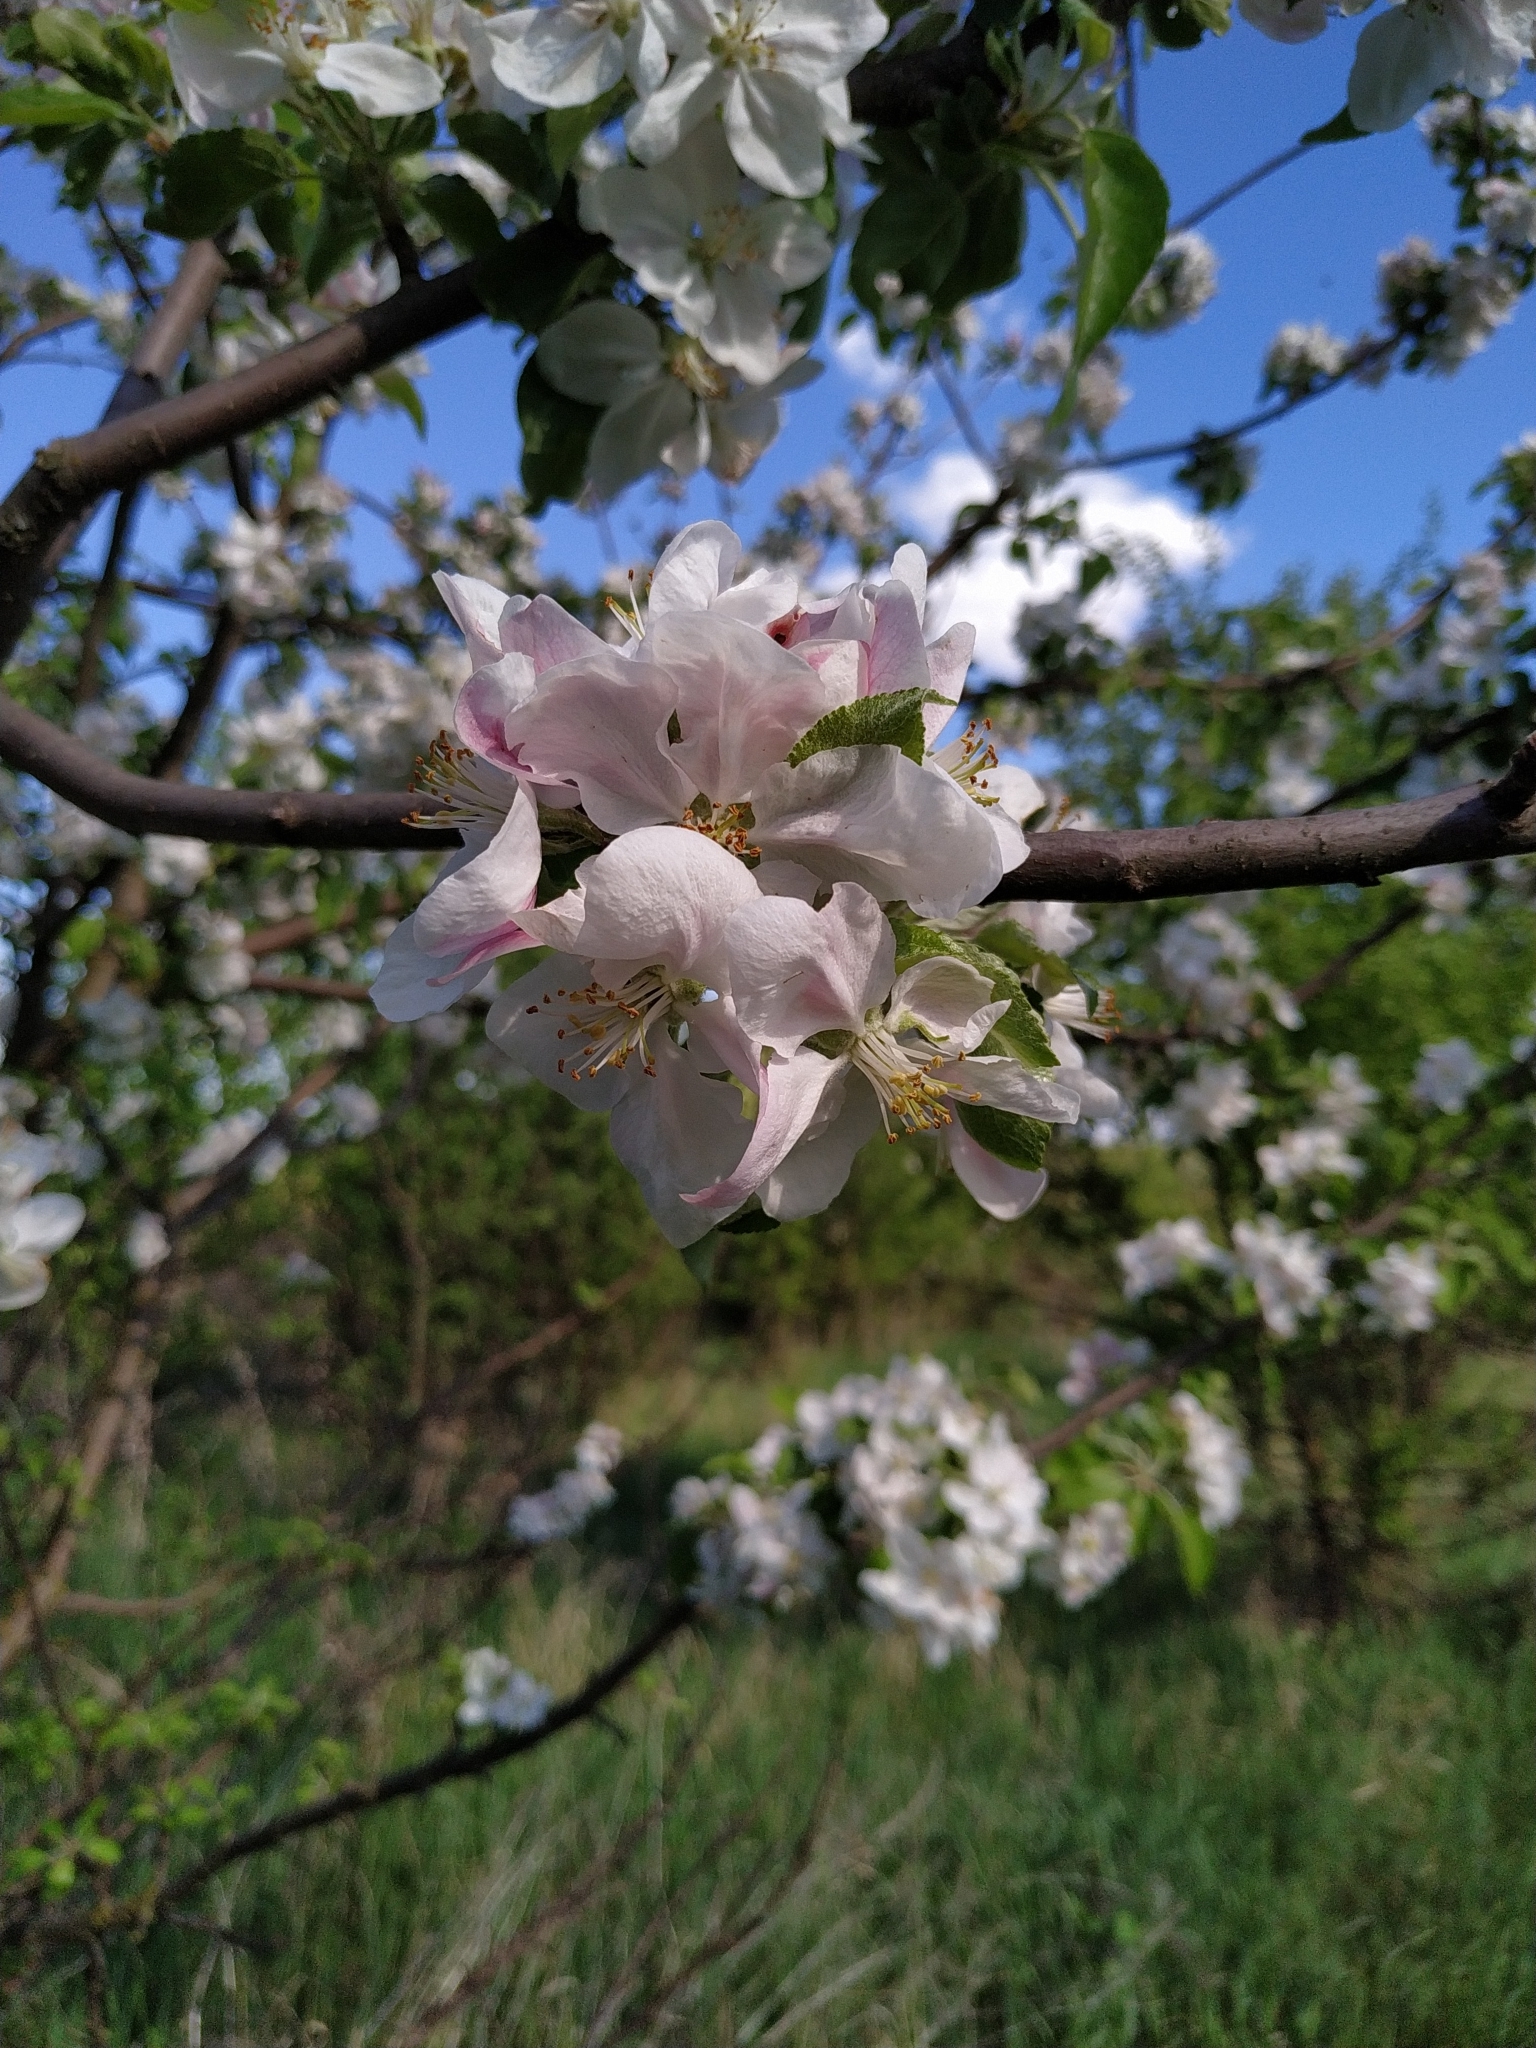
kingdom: Plantae
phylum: Tracheophyta
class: Magnoliopsida
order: Rosales
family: Rosaceae
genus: Malus
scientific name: Malus domestica
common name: Apple
